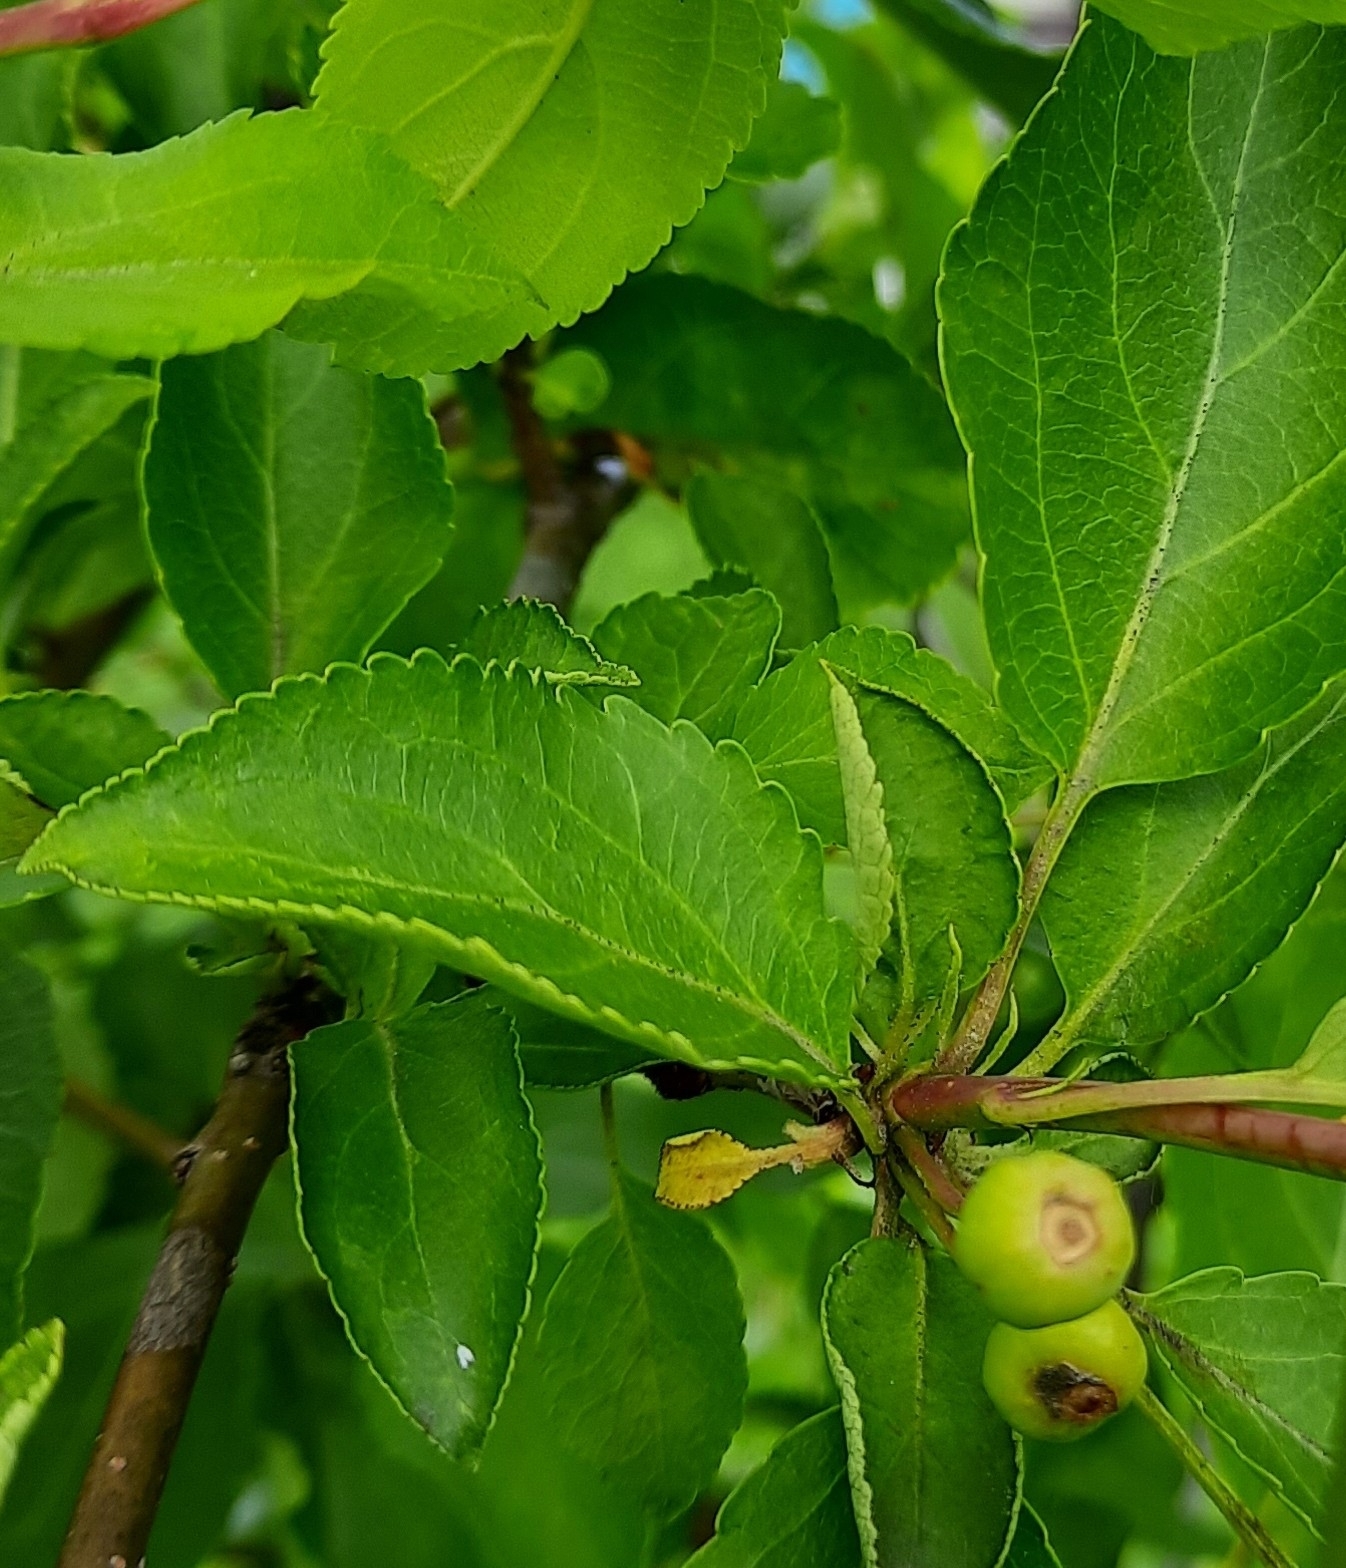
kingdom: Plantae
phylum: Tracheophyta
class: Magnoliopsida
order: Rosales
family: Rosaceae
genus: Malus
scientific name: Malus baccata
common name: Siberian crab
